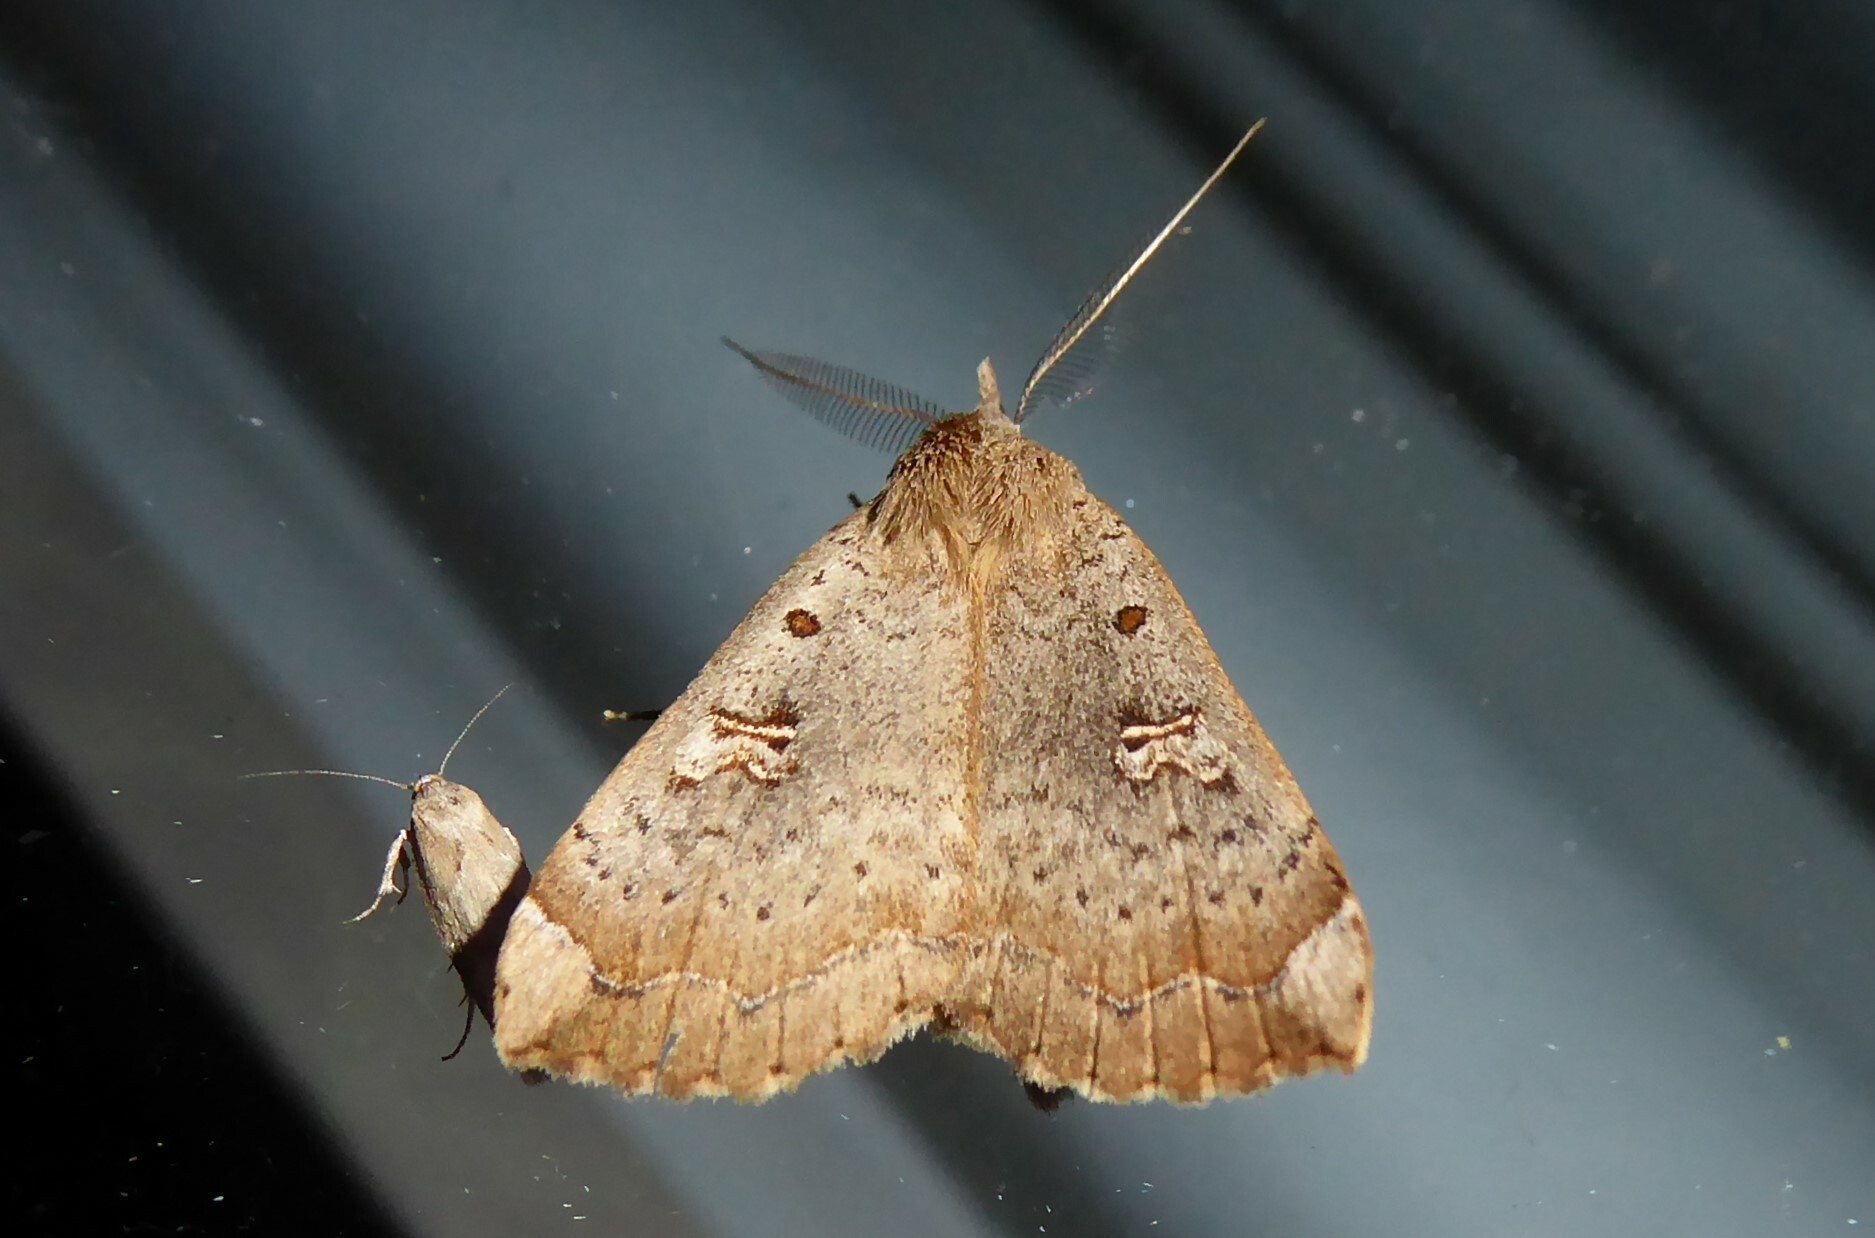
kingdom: Animalia
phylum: Arthropoda
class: Insecta
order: Lepidoptera
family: Erebidae
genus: Rhapsa
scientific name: Rhapsa scotosialis
